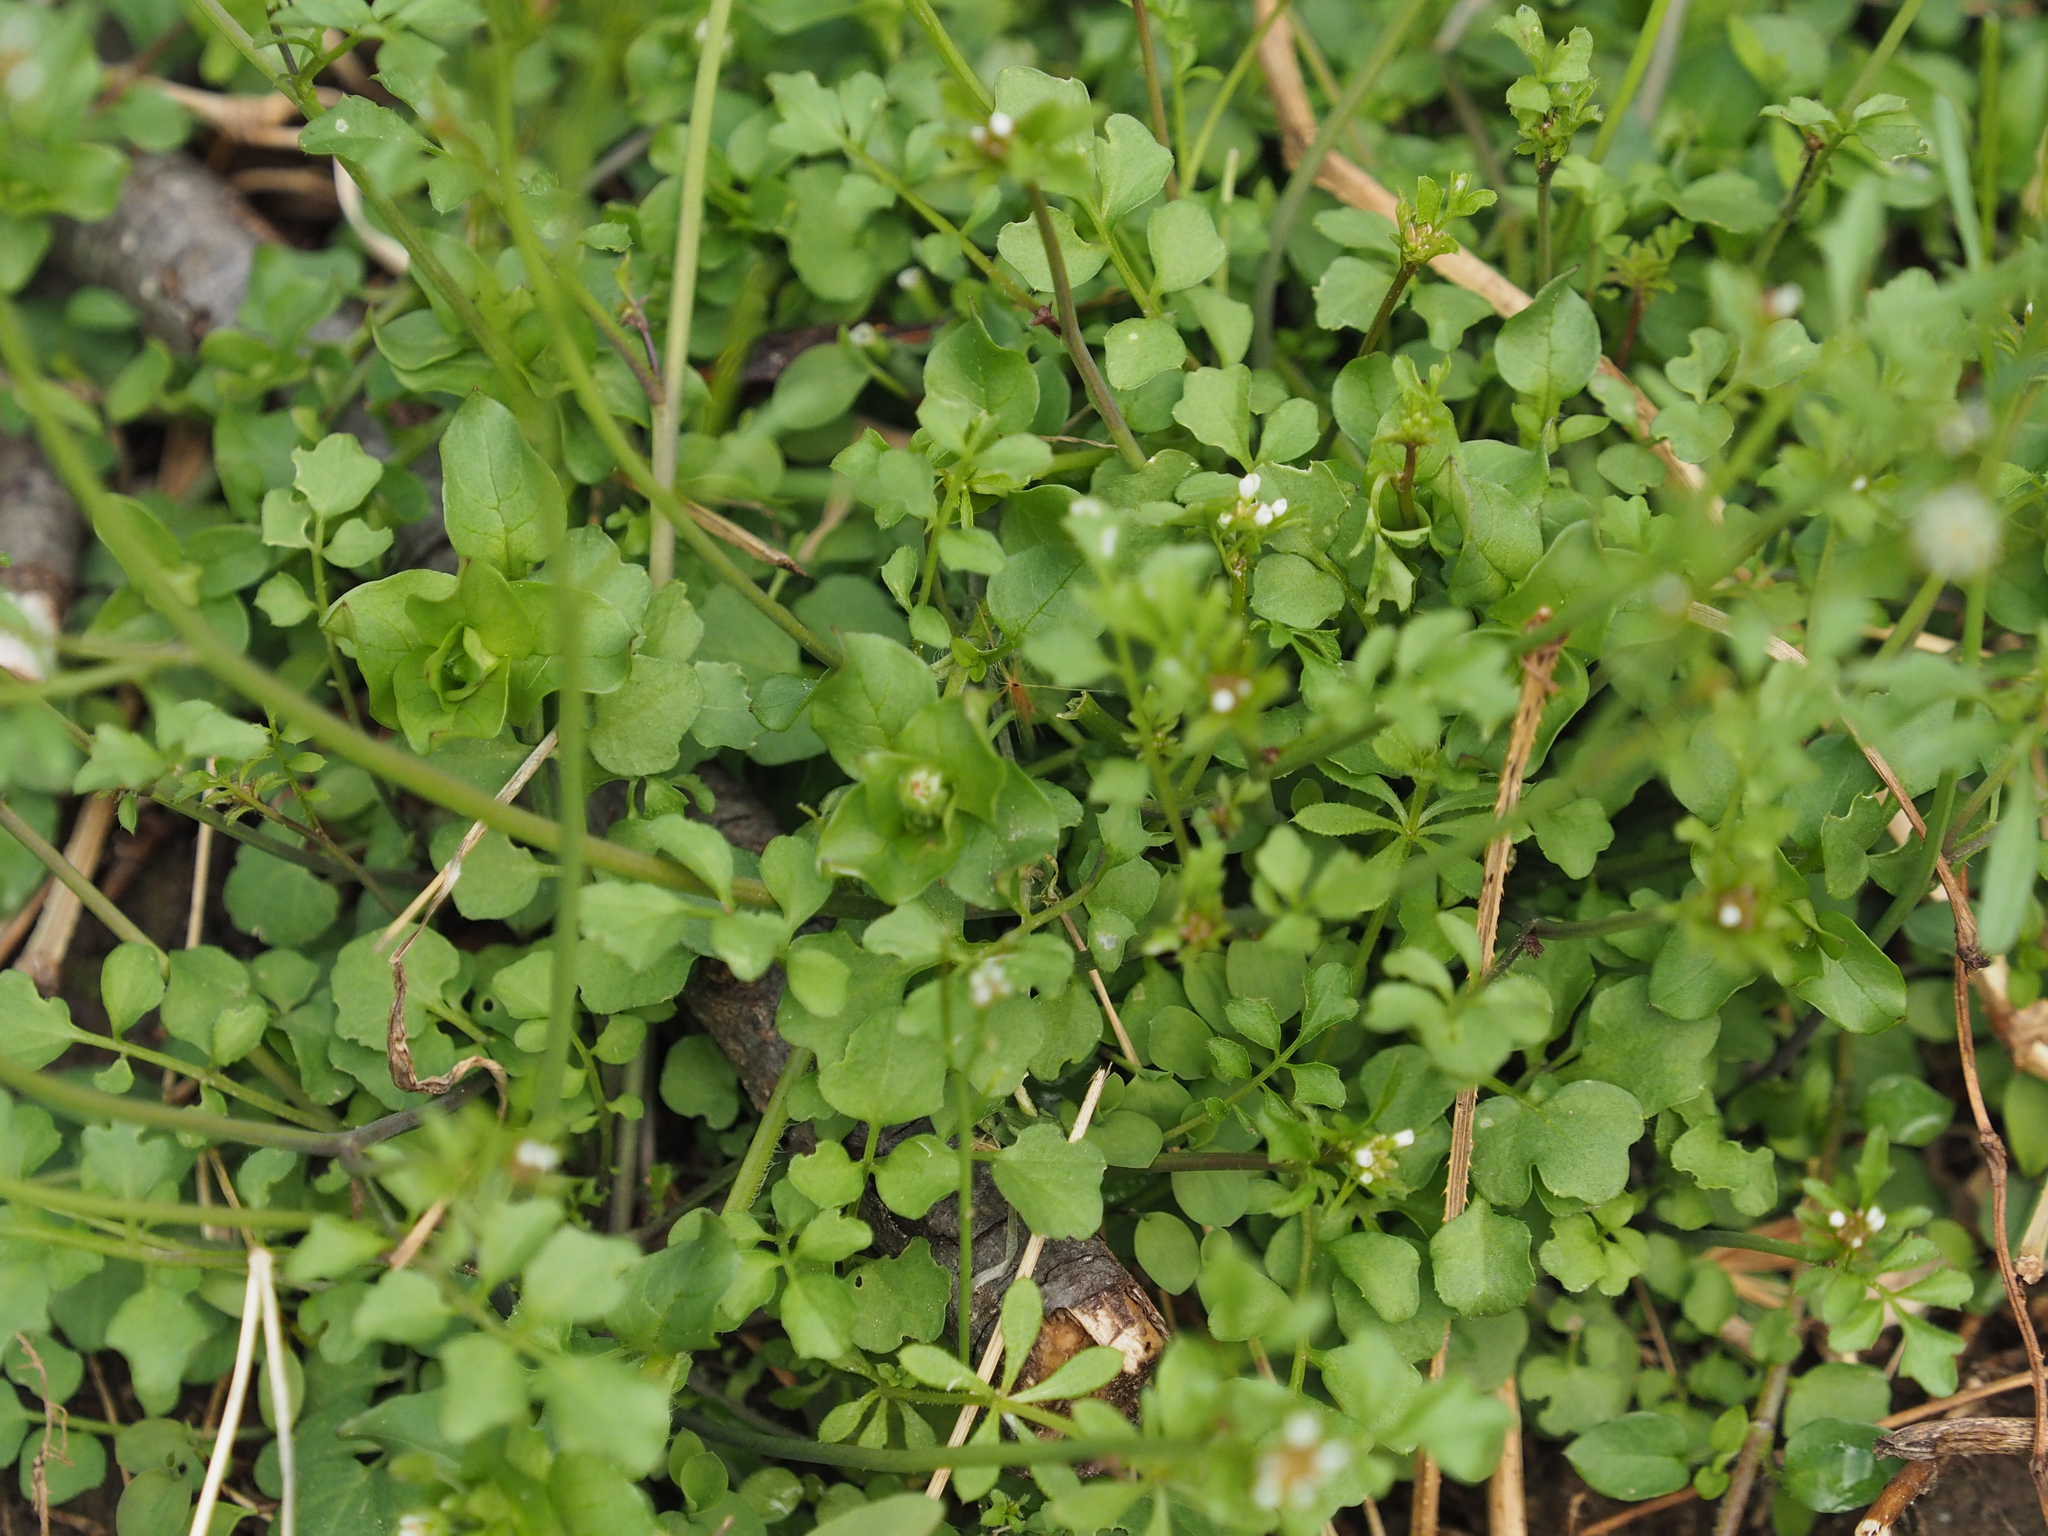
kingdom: Plantae
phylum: Tracheophyta
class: Magnoliopsida
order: Brassicales
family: Brassicaceae
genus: Cardamine
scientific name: Cardamine hirsuta
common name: Hairy bittercress
